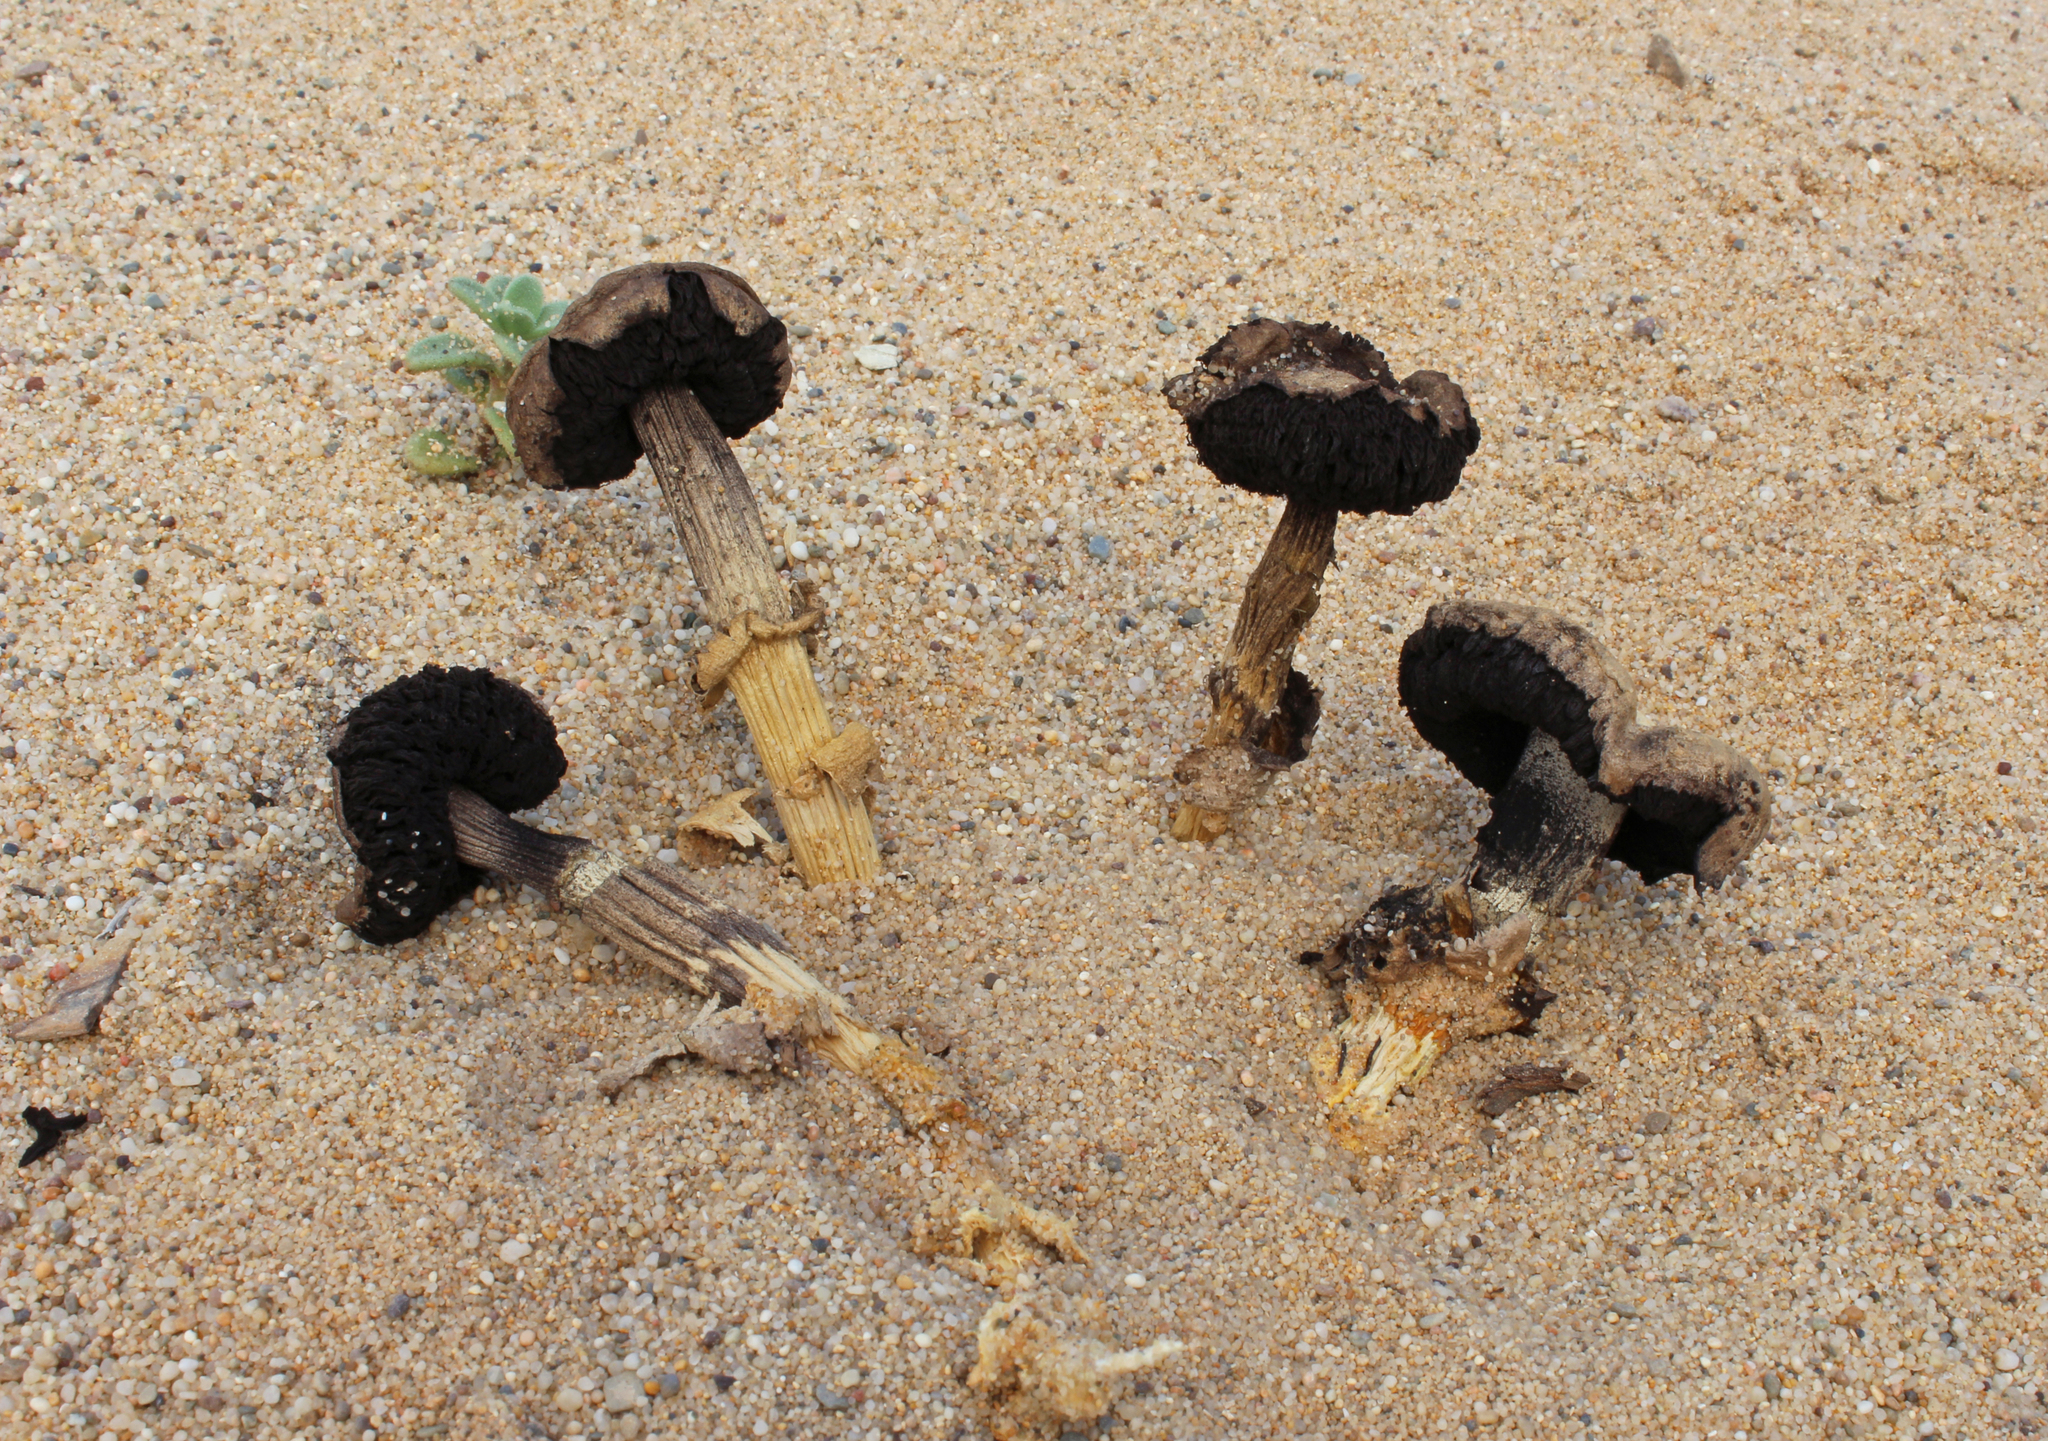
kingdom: Fungi
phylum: Basidiomycota
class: Agaricomycetes
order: Agaricales
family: Agaricaceae
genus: Agaricus
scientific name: Agaricus aridicola
